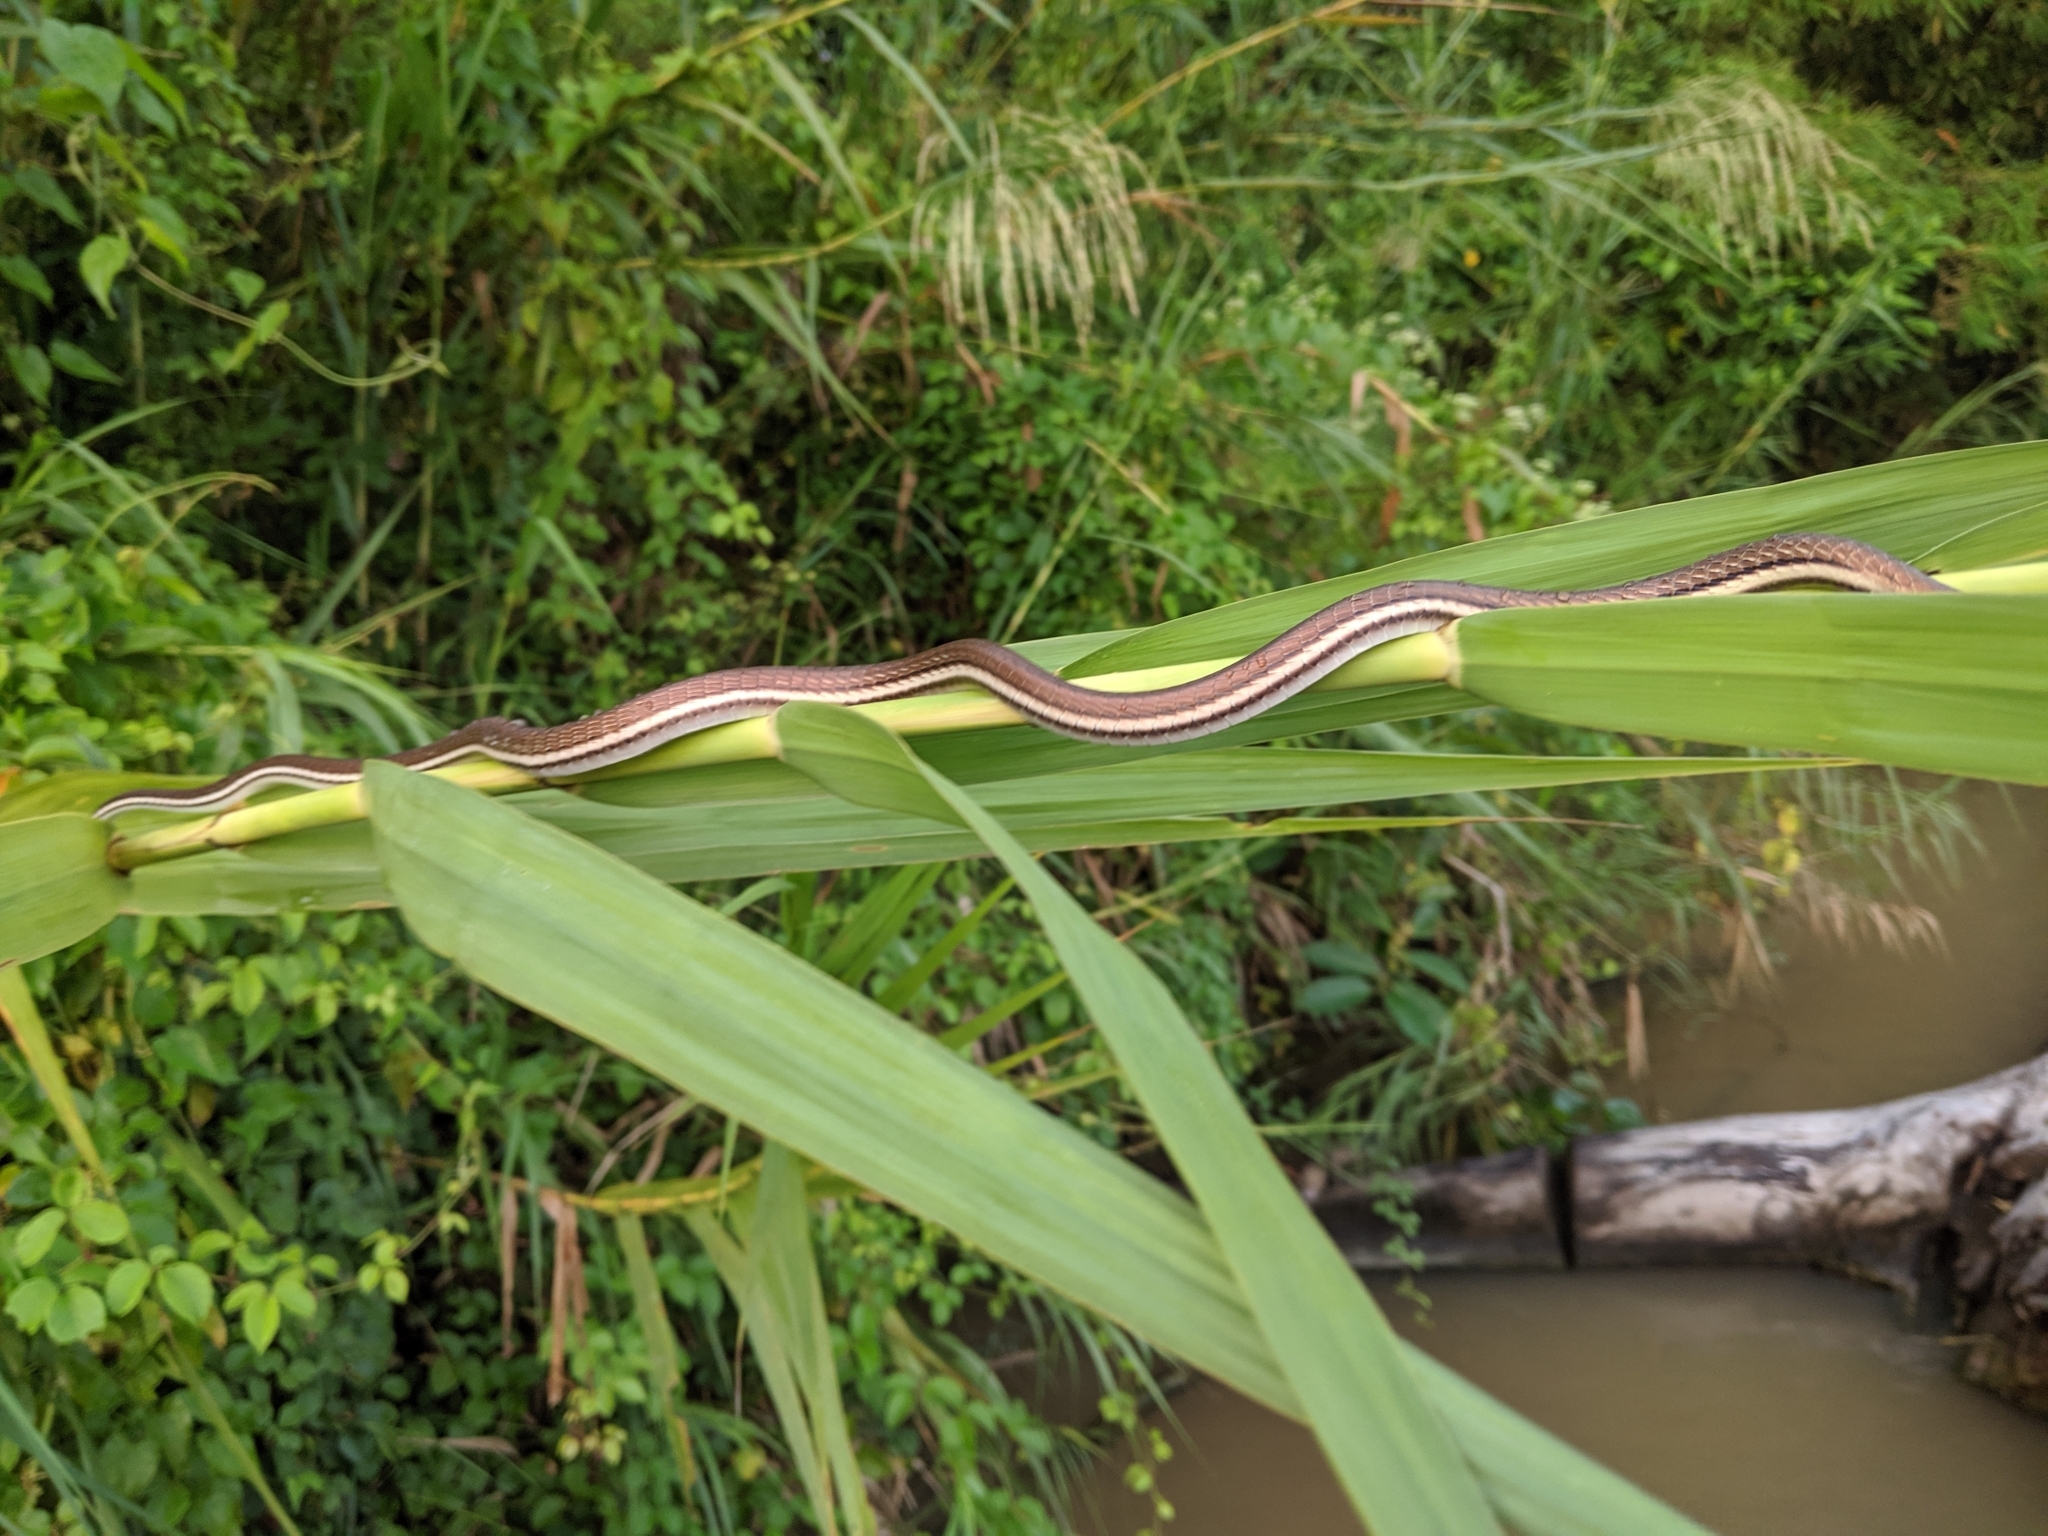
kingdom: Animalia
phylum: Chordata
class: Squamata
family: Colubridae
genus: Dendrelaphis
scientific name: Dendrelaphis caudolineatus
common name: Striped bronzeback
